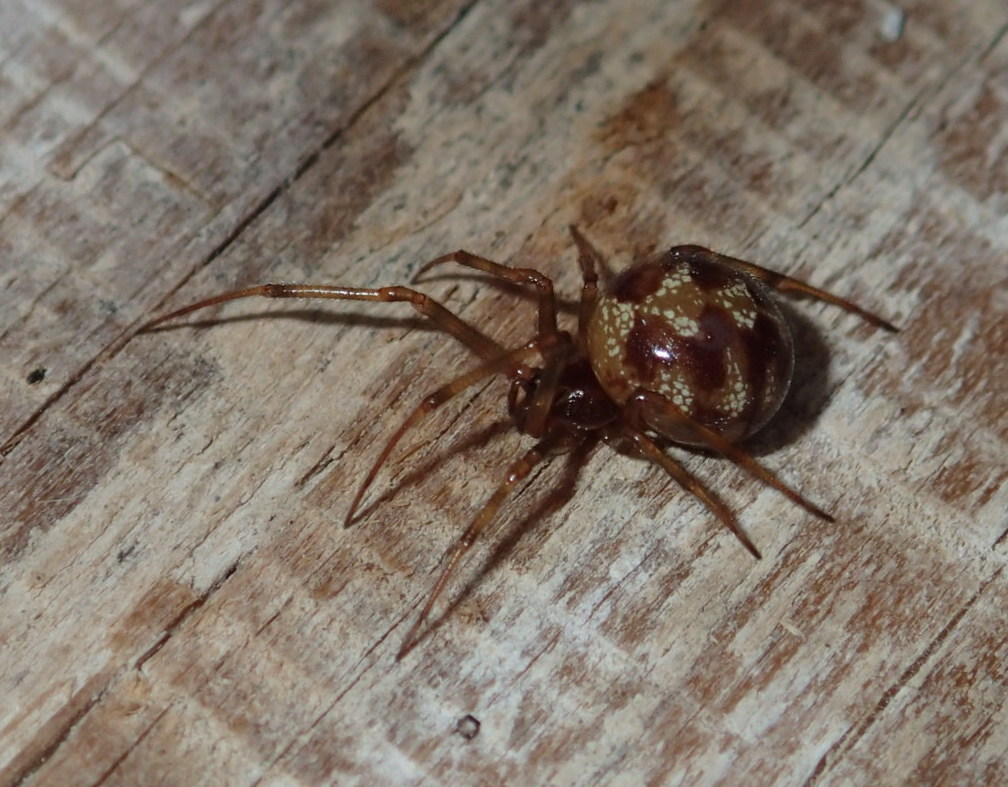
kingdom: Animalia
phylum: Arthropoda
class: Arachnida
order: Araneae
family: Theridiidae
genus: Steatoda
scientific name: Steatoda triangulosa
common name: Triangulate bud spider
